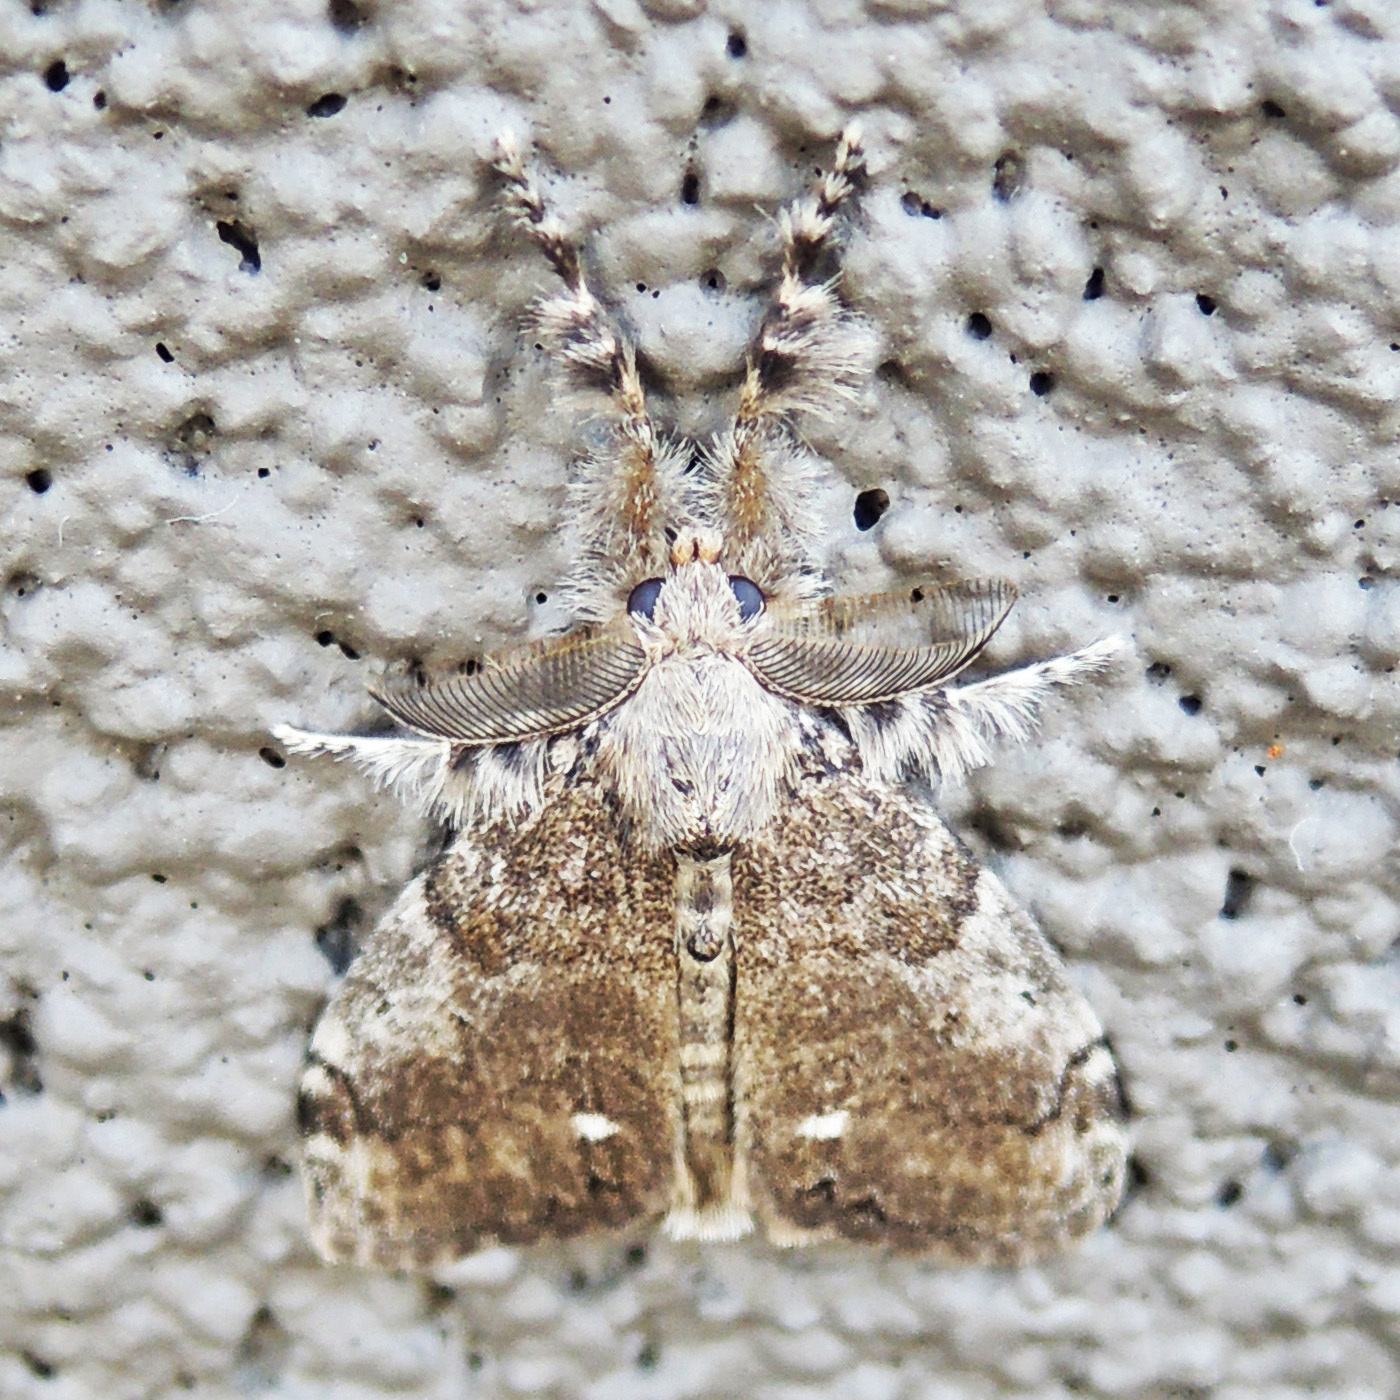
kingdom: Animalia
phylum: Arthropoda
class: Insecta
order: Lepidoptera
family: Erebidae
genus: Orgyia
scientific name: Orgyia leucostigma
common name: White-marked tussock moth
